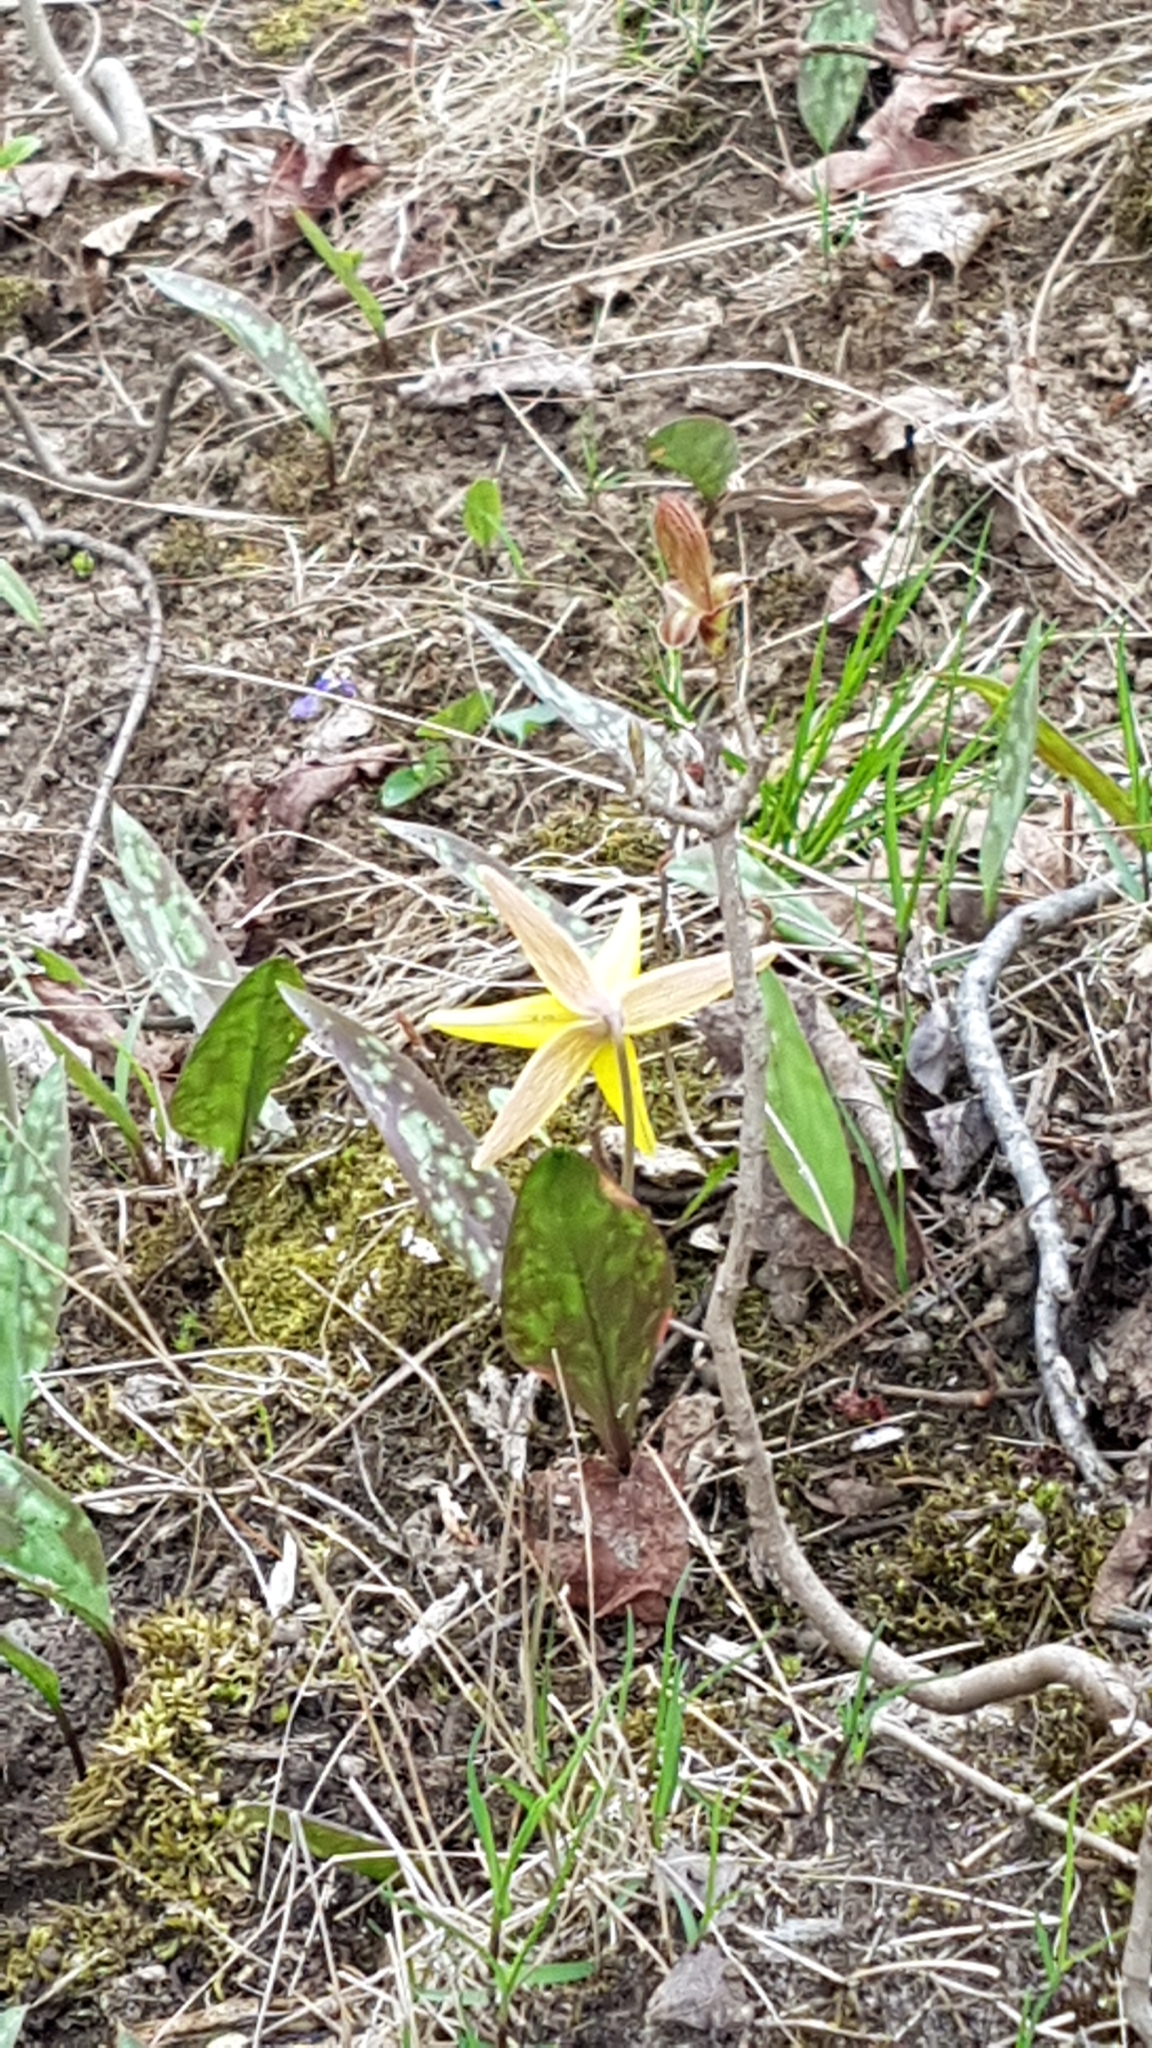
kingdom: Plantae
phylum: Tracheophyta
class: Liliopsida
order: Liliales
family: Liliaceae
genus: Erythronium
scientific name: Erythronium americanum
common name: Yellow adder's-tongue
